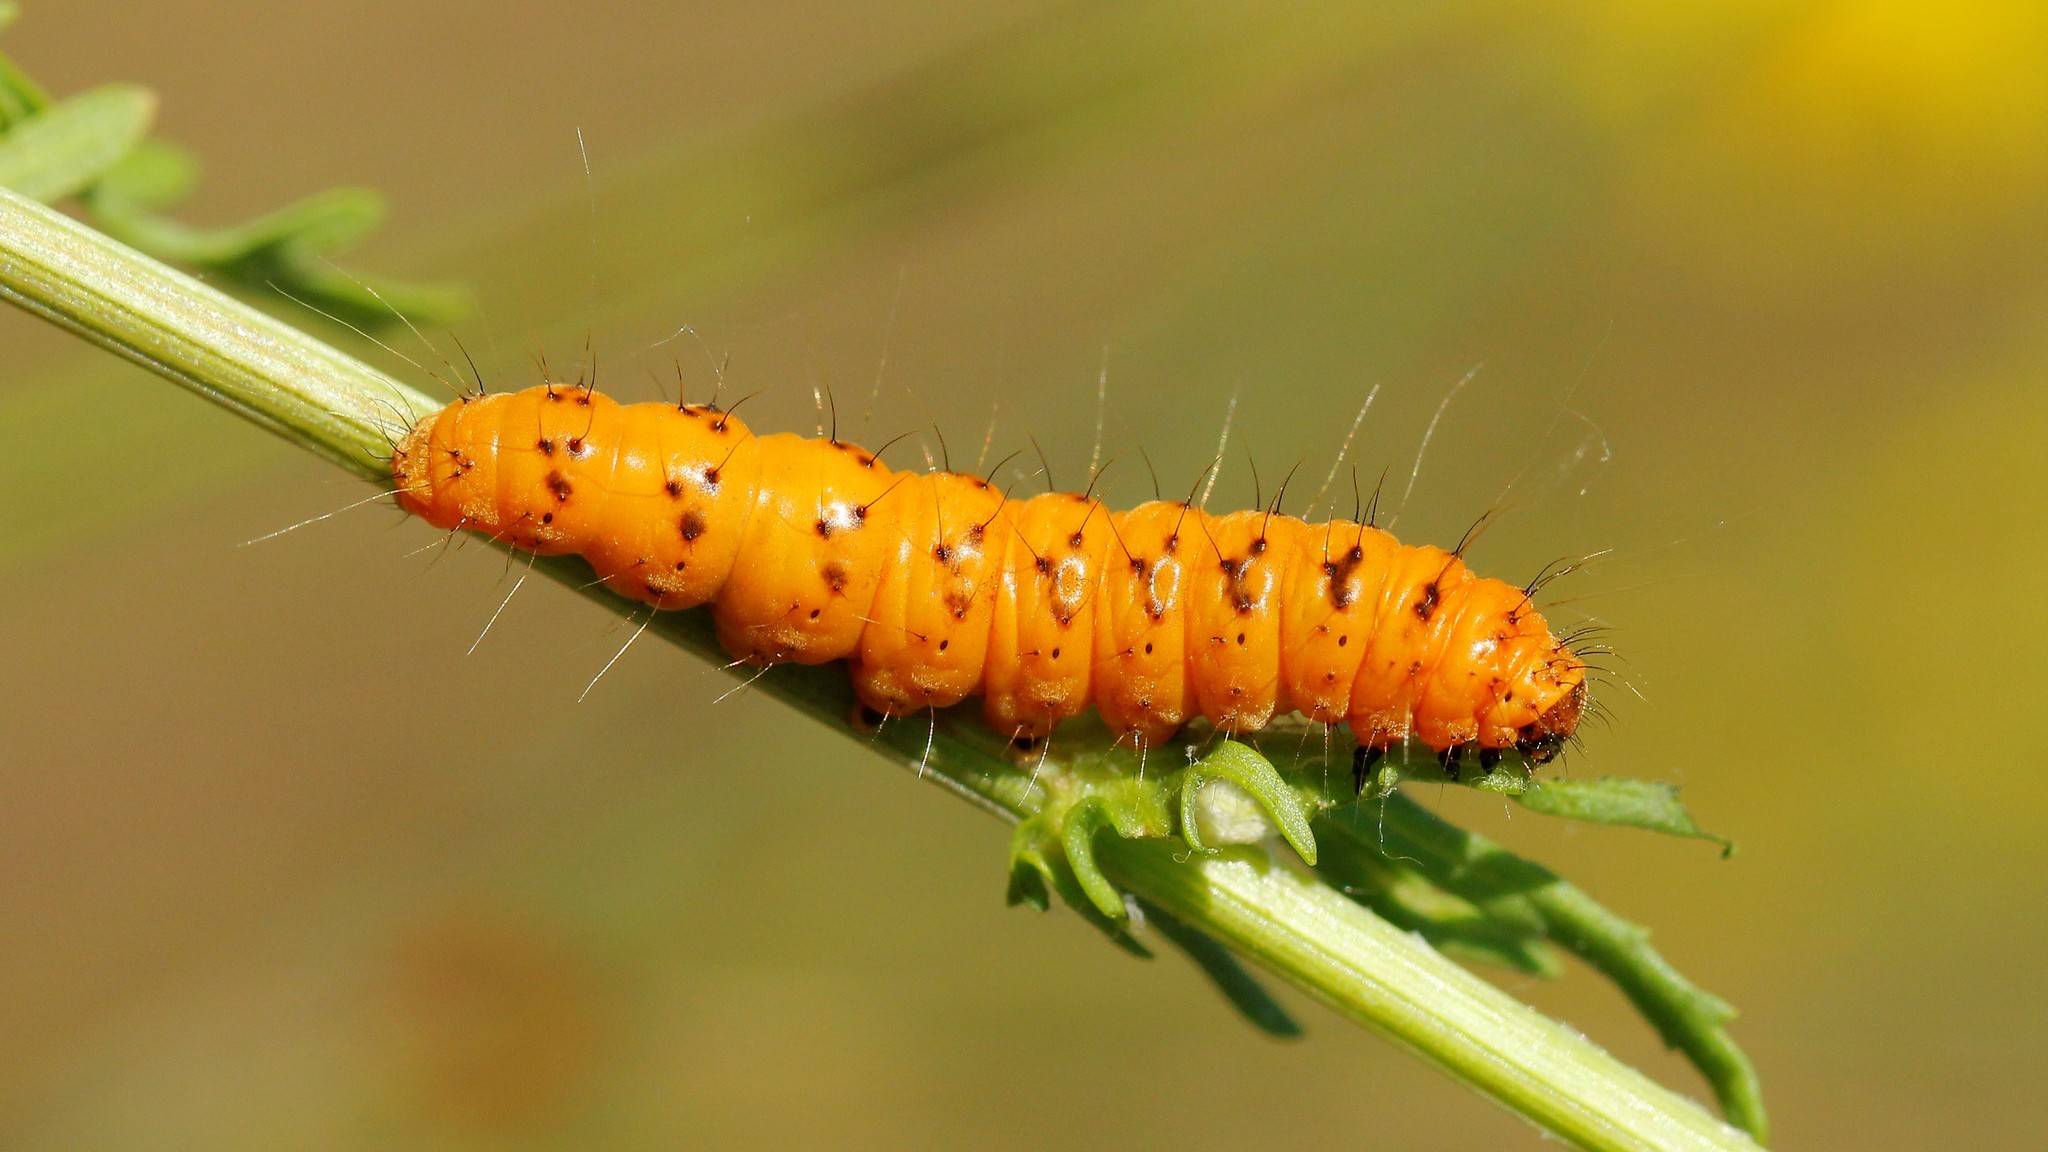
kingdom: Animalia
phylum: Arthropoda
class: Insecta
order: Lepidoptera
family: Erebidae
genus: Tyria
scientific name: Tyria jacobaeae
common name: Cinnabar
